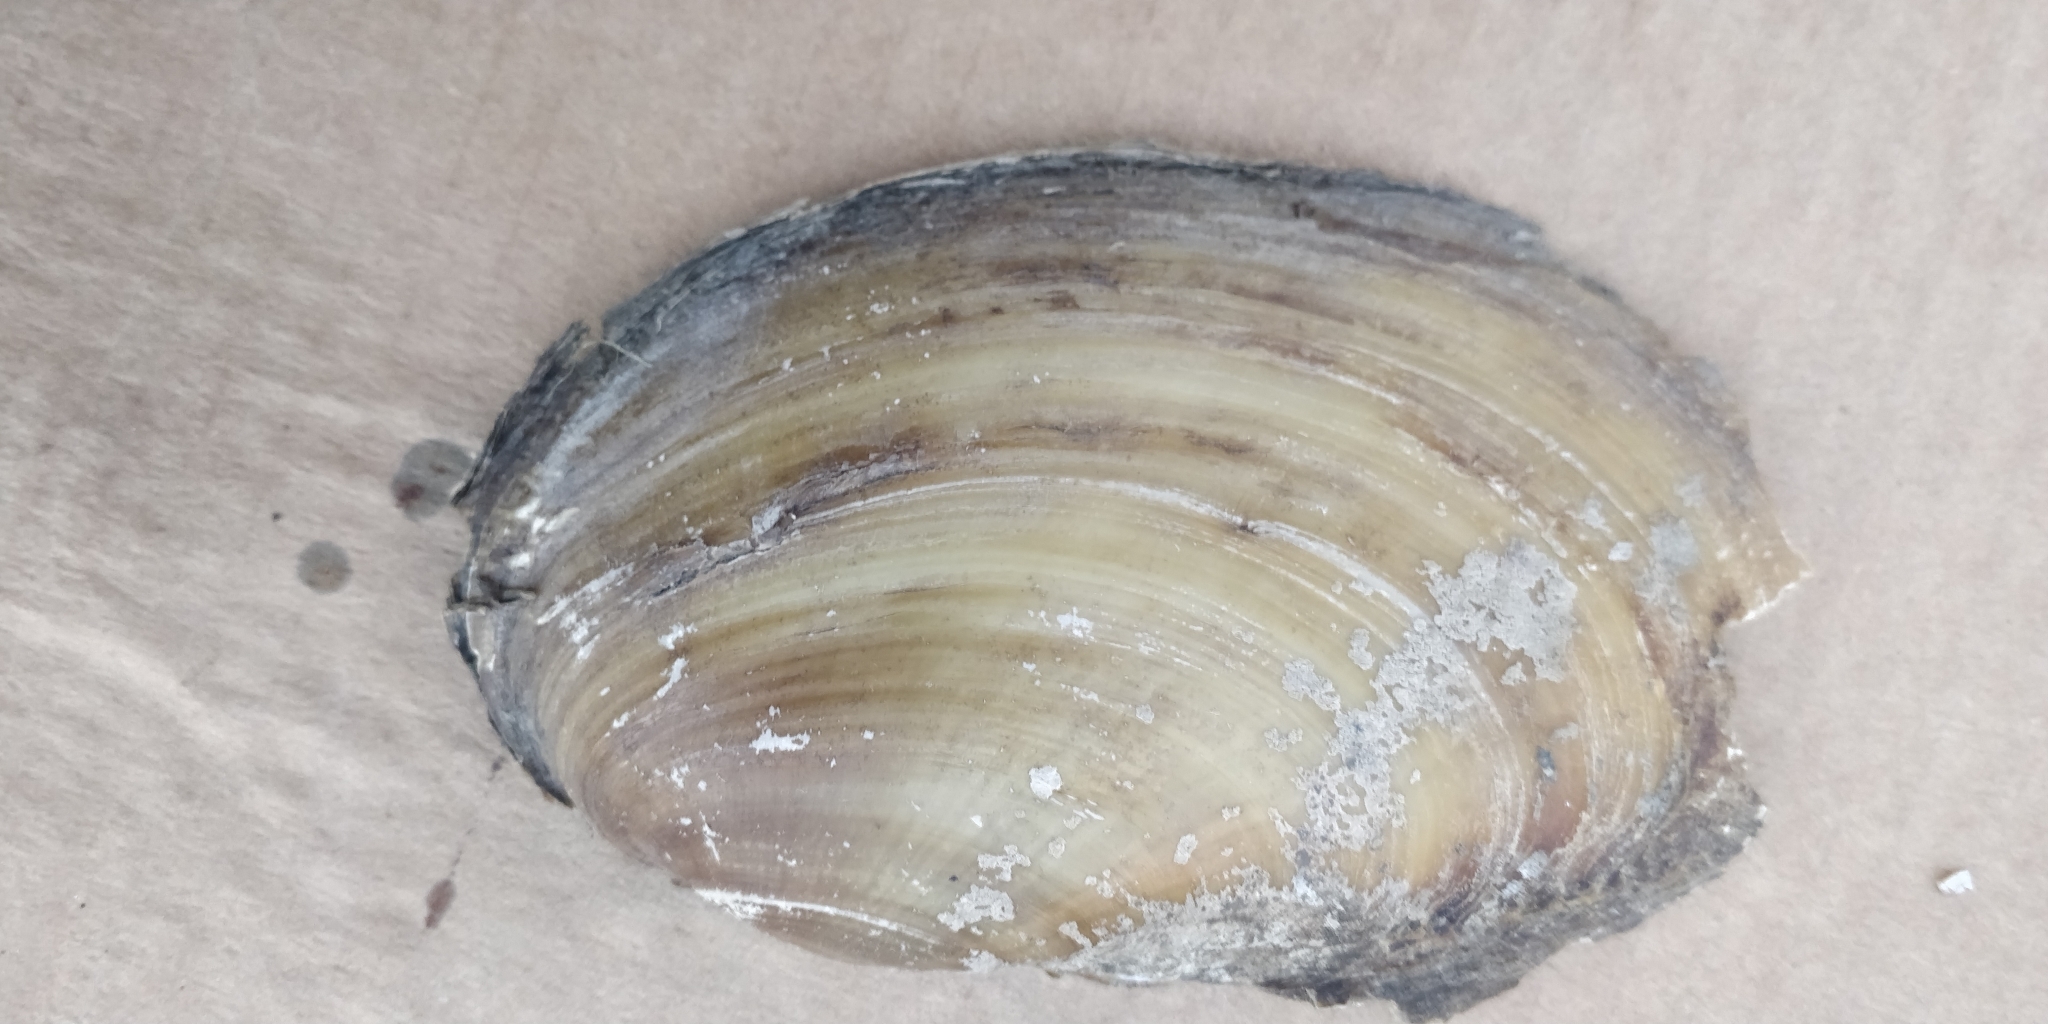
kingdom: Animalia
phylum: Mollusca
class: Bivalvia
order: Unionida
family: Unionidae
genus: Potamilus
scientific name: Potamilus fragilis
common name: Fragile papershell
